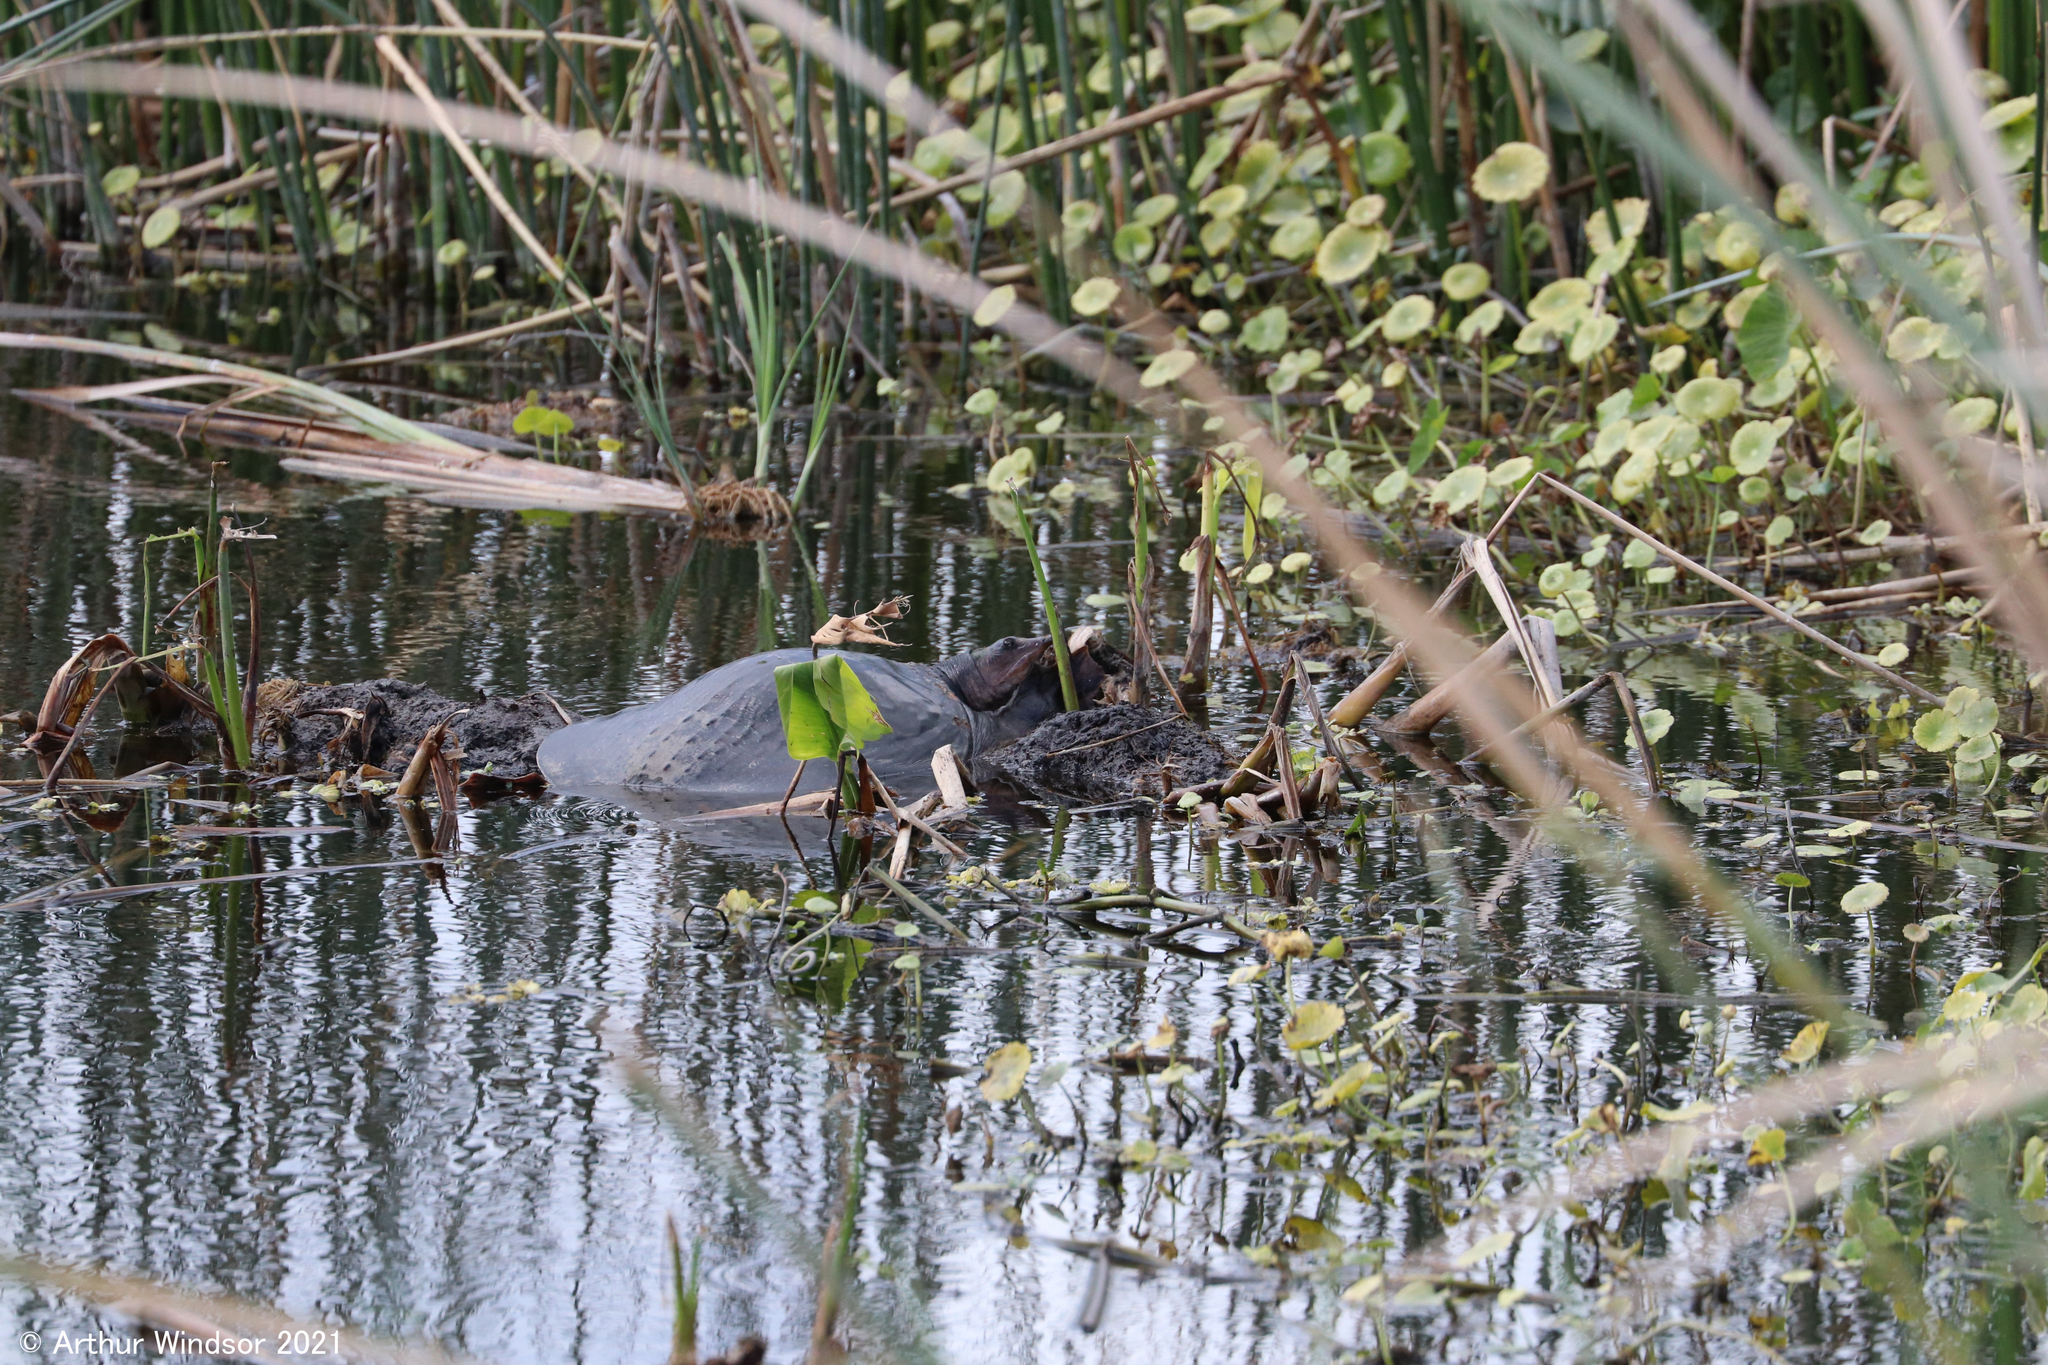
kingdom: Animalia
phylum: Chordata
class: Testudines
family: Trionychidae
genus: Apalone
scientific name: Apalone ferox
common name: Florida softshell turtle
